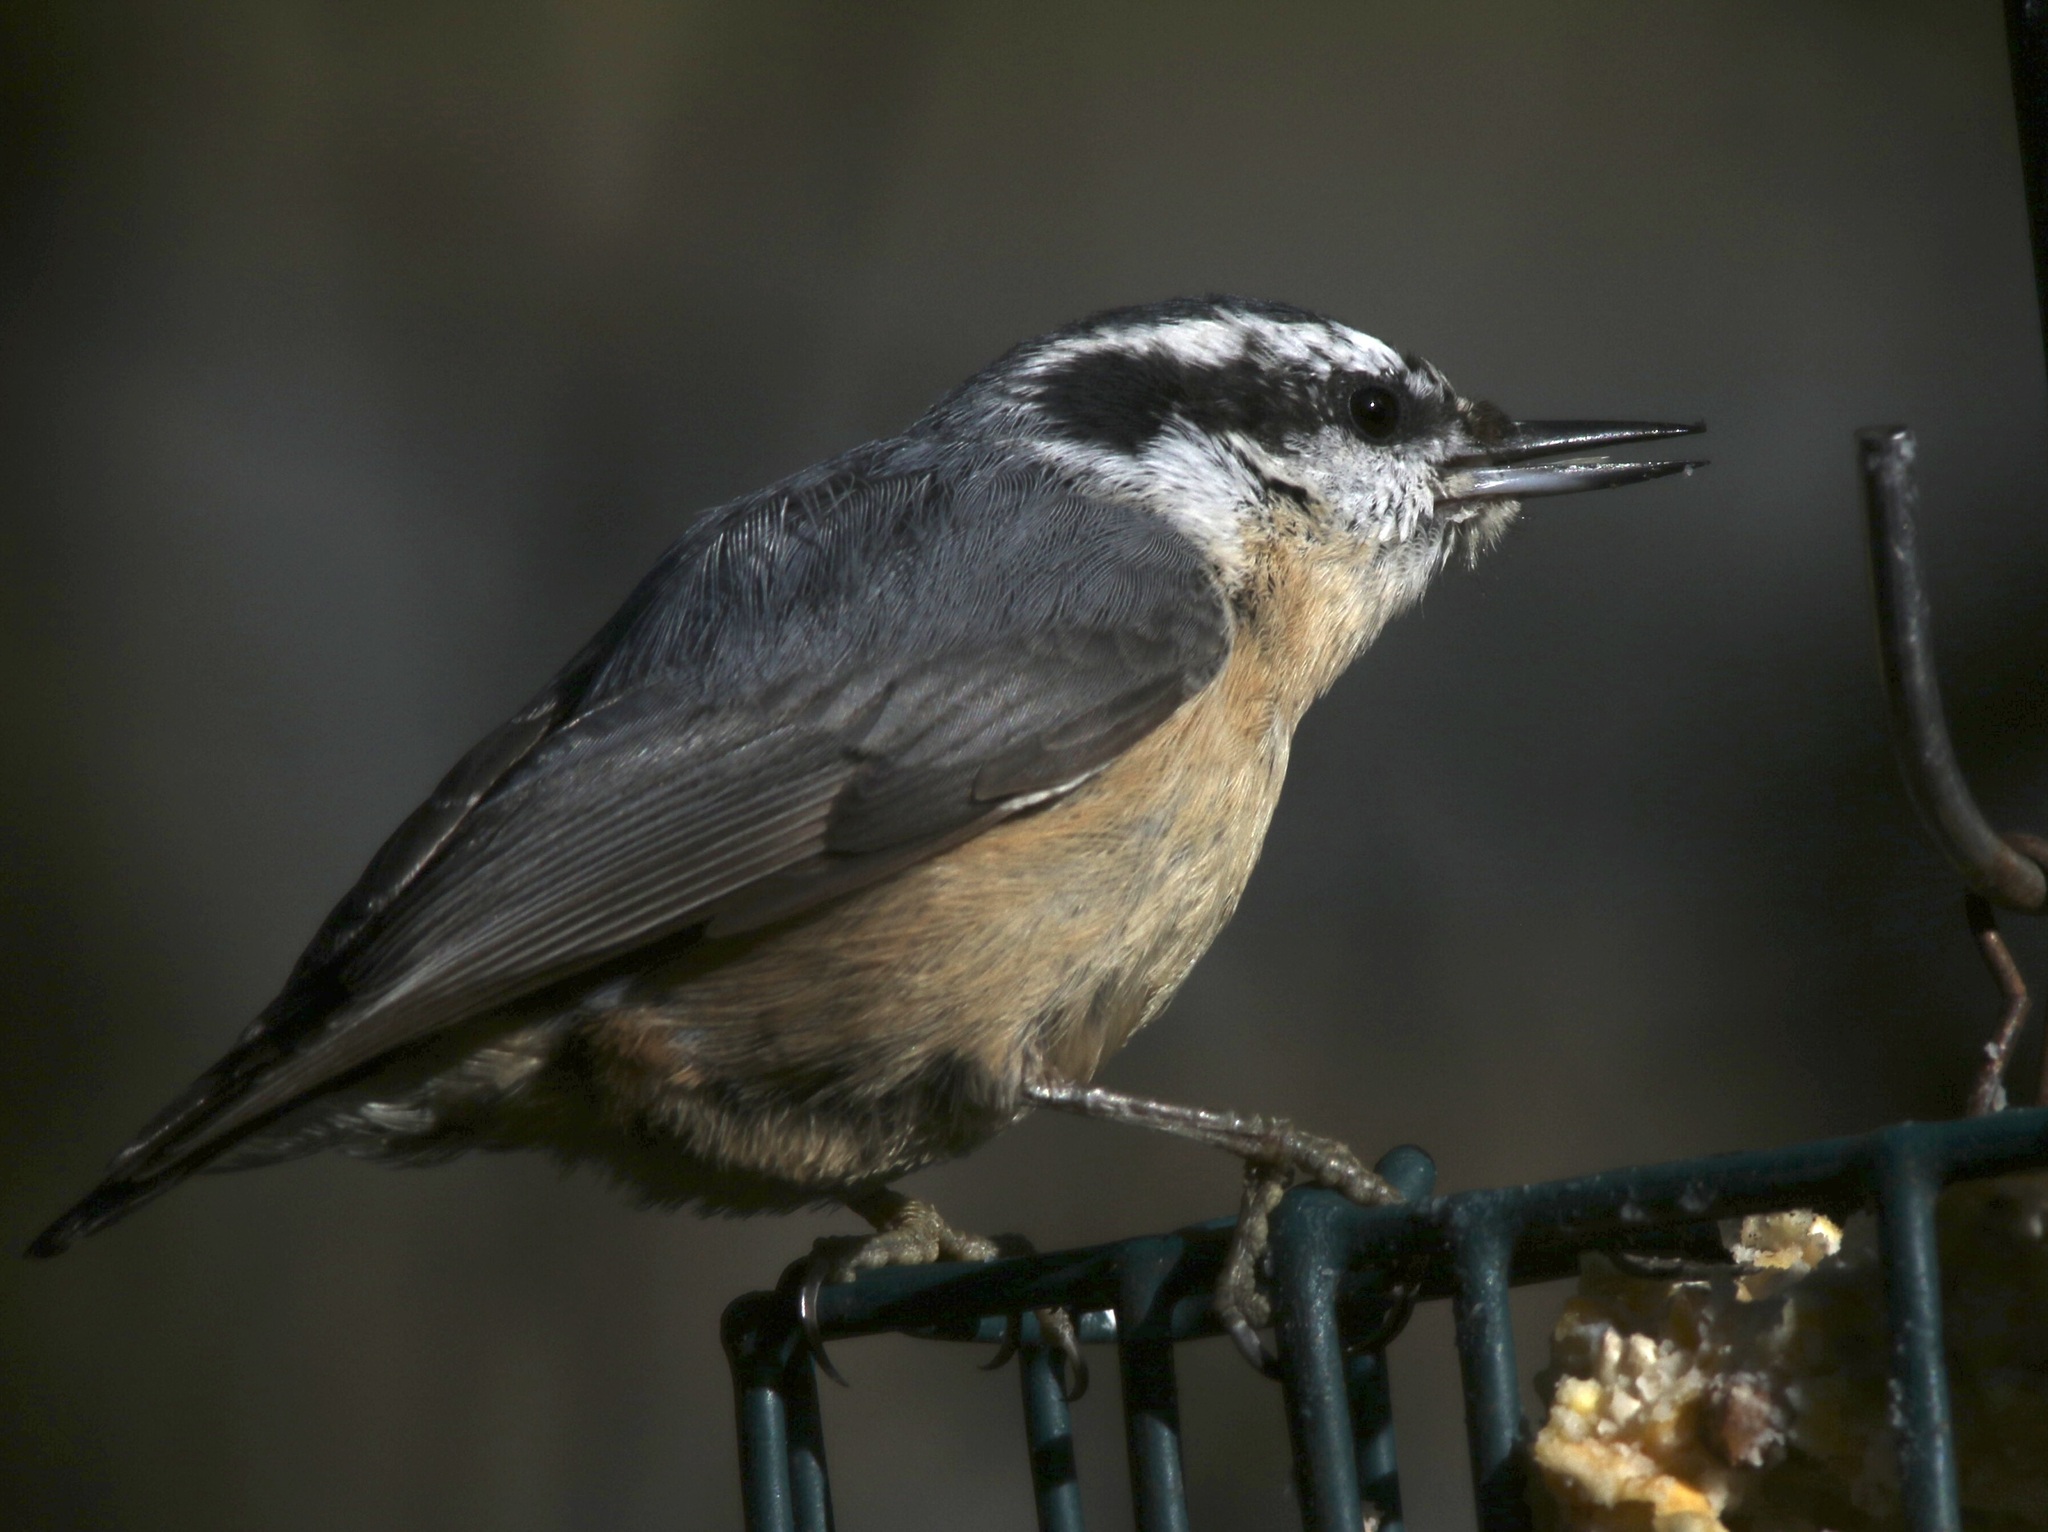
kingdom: Animalia
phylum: Chordata
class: Aves
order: Passeriformes
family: Sittidae
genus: Sitta
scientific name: Sitta canadensis
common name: Red-breasted nuthatch
